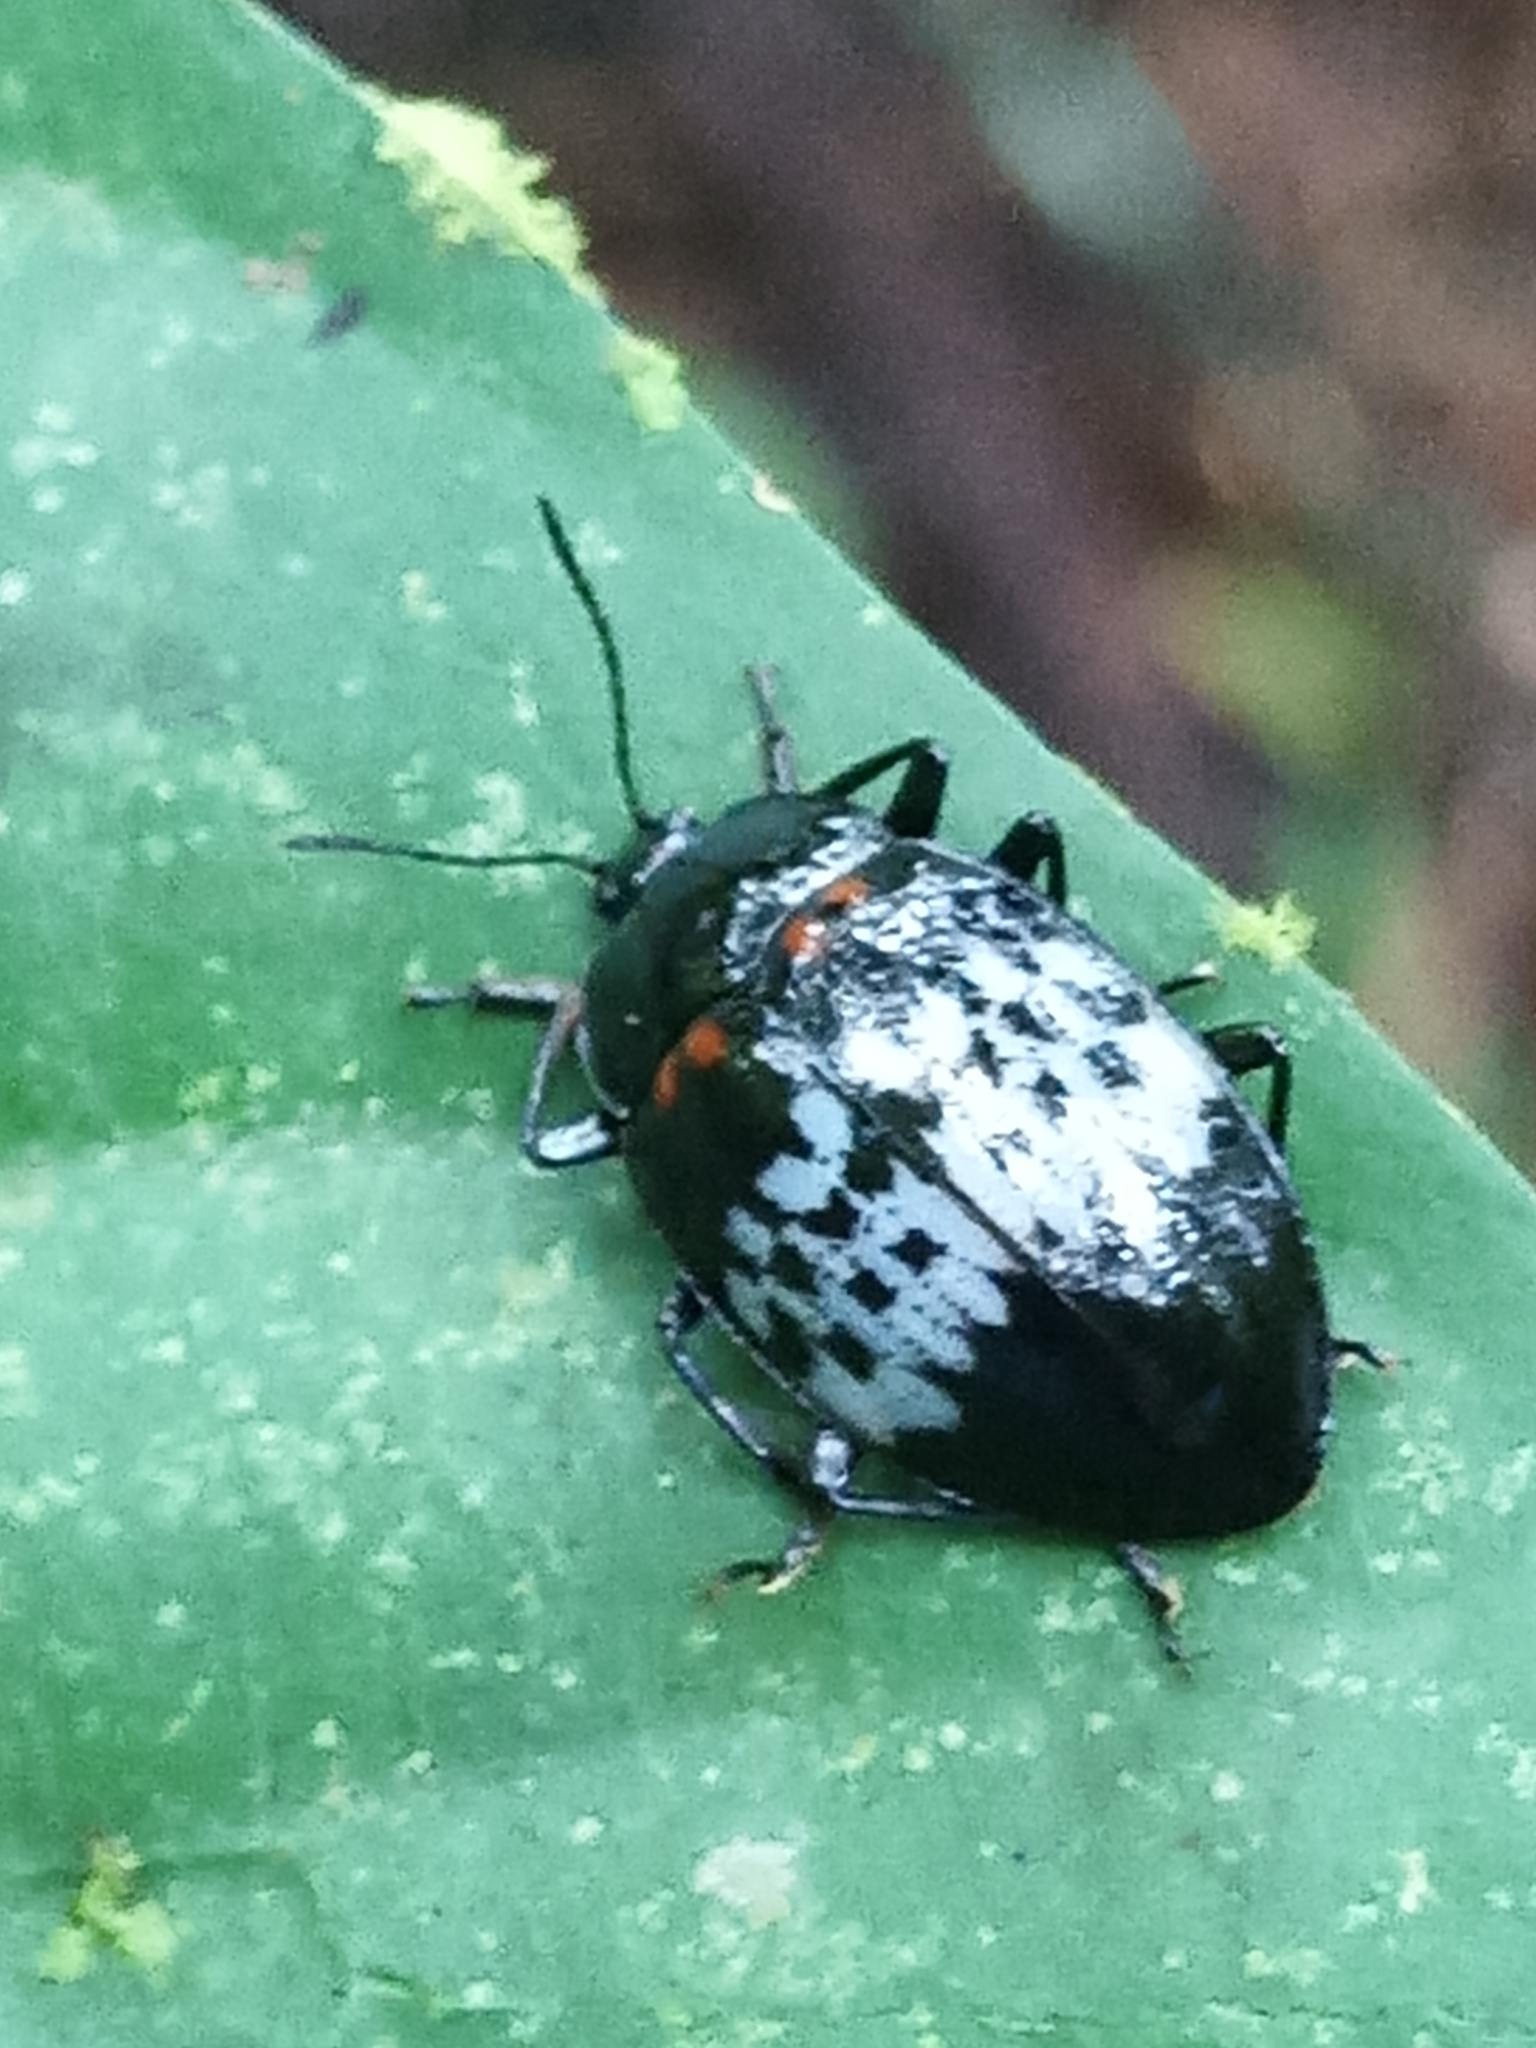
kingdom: Animalia
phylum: Arthropoda
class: Insecta
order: Coleoptera
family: Erotylidae
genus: Prepopharus
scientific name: Prepopharus
